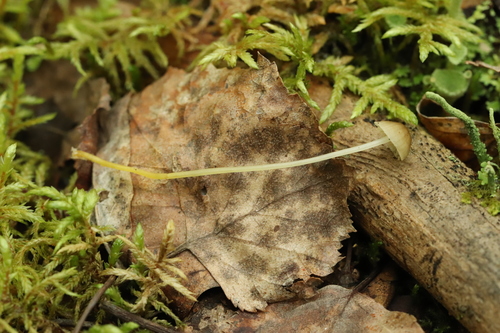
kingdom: Fungi
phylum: Basidiomycota
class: Agaricomycetes
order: Agaricales
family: Mycenaceae
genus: Mycena
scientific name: Mycena epipterygia
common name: Yellowleg bonnet
